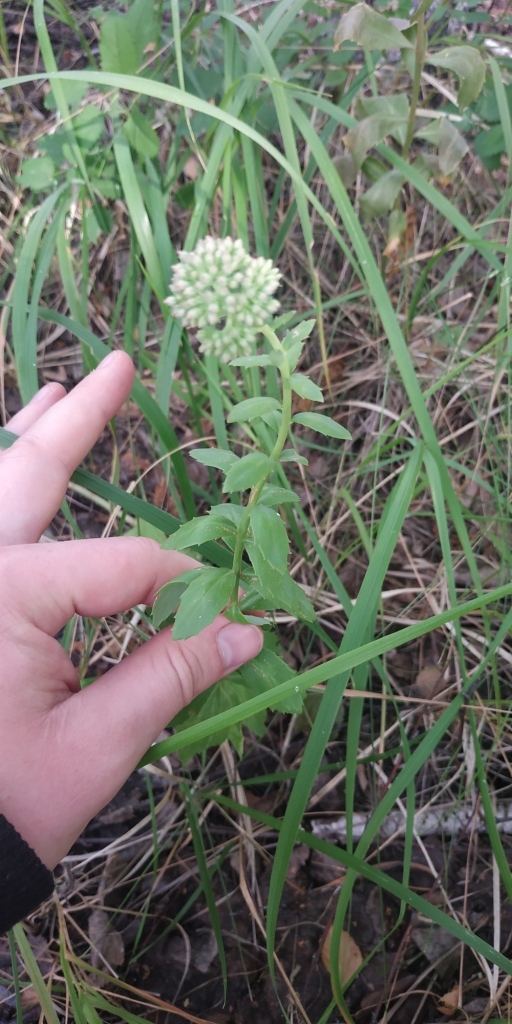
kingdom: Plantae
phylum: Tracheophyta
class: Magnoliopsida
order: Saxifragales
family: Crassulaceae
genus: Hylotelephium
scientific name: Hylotelephium telephium
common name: Live-forever
